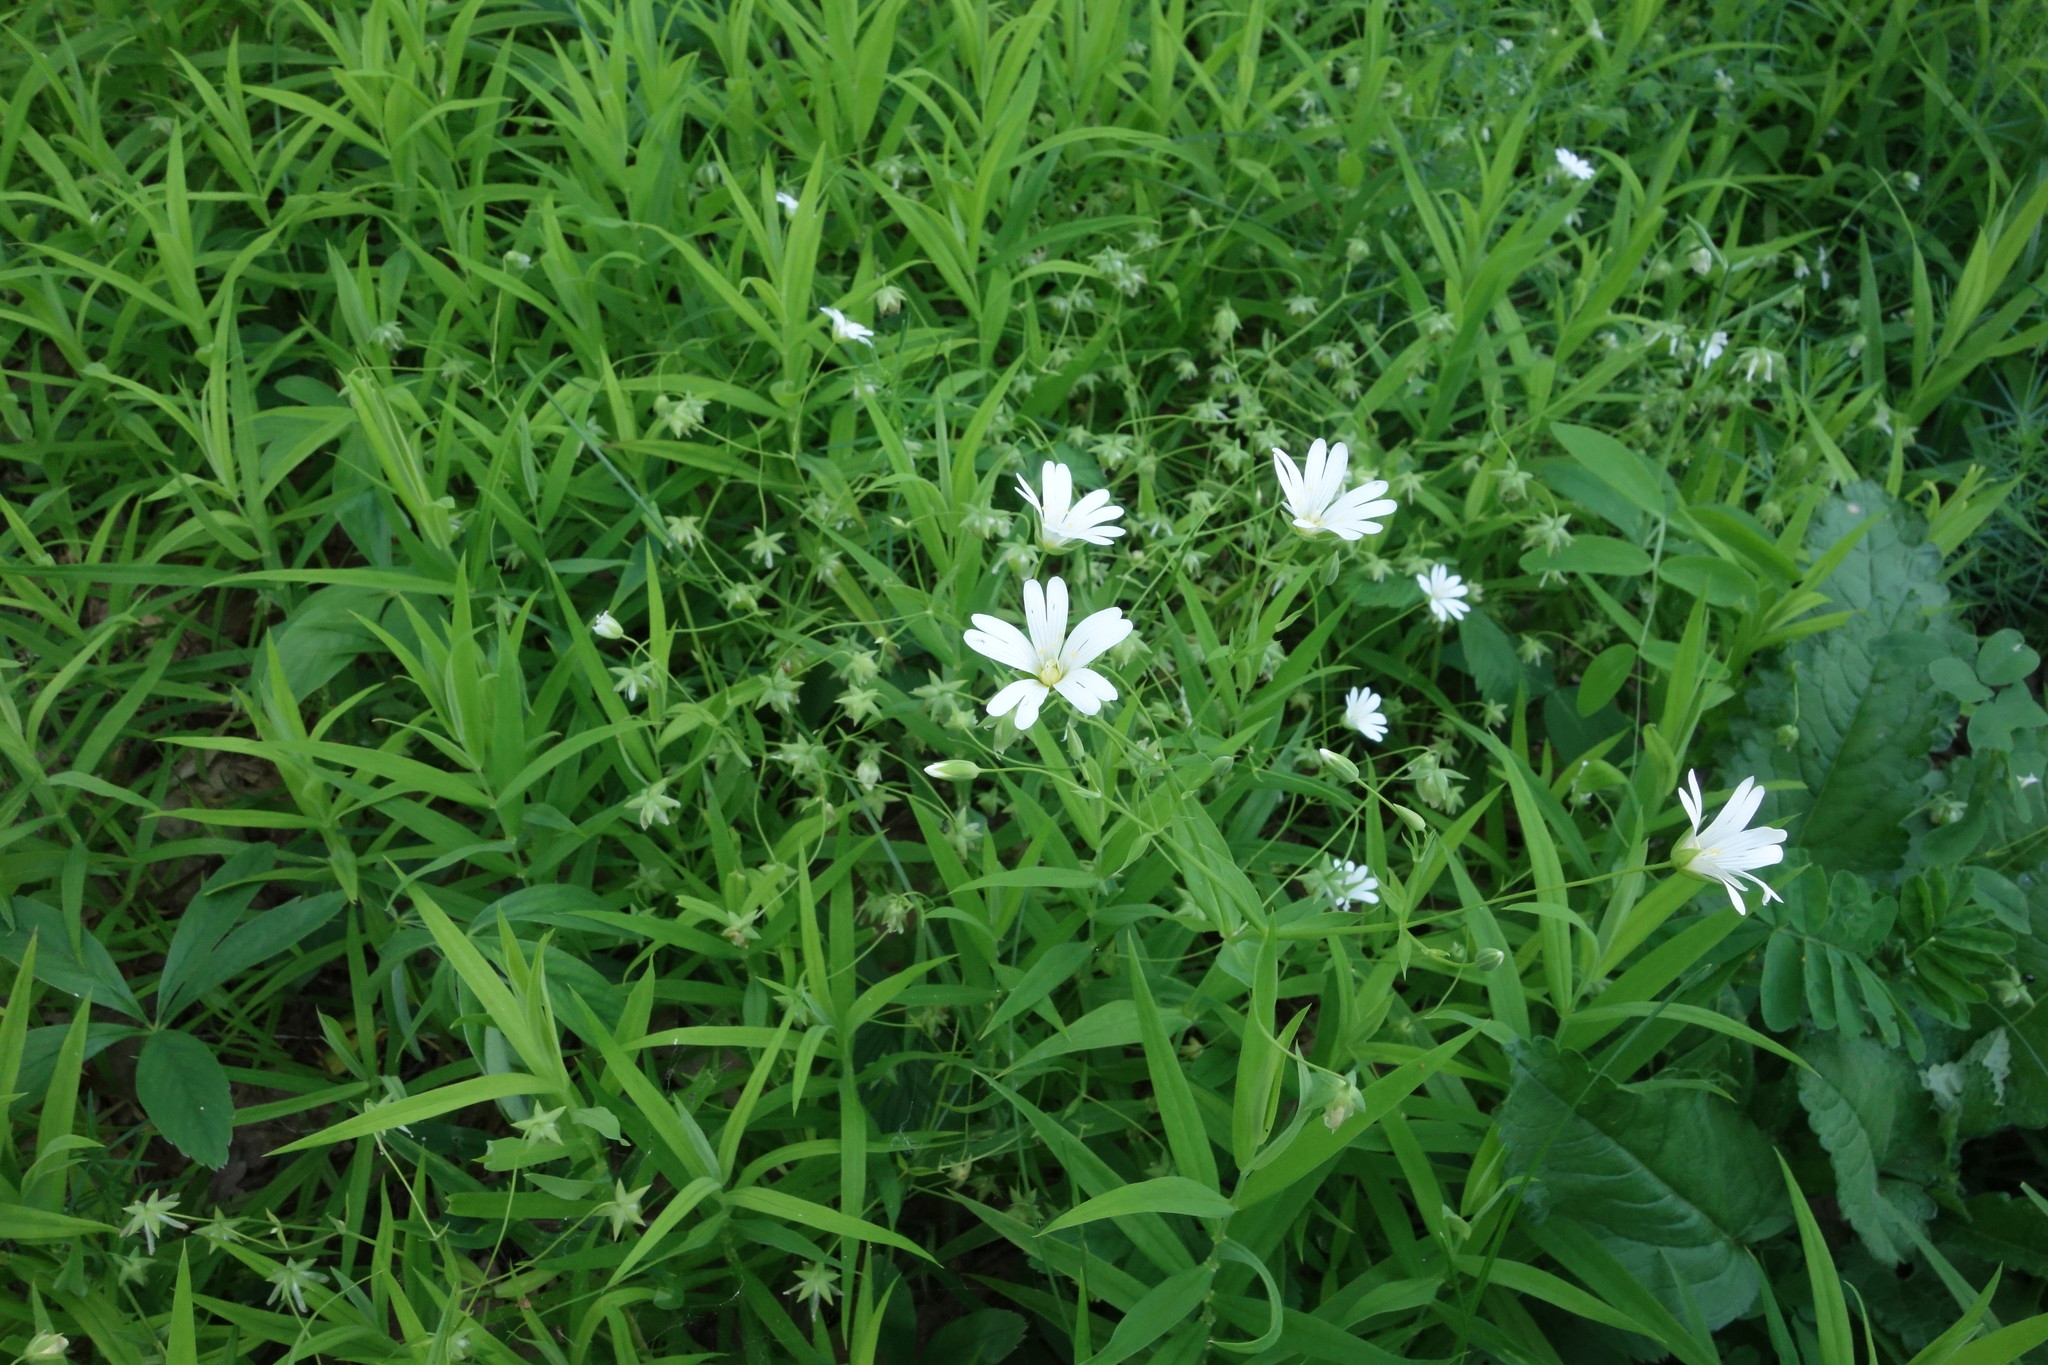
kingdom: Plantae
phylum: Tracheophyta
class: Magnoliopsida
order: Caryophyllales
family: Caryophyllaceae
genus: Rabelera
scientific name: Rabelera holostea
